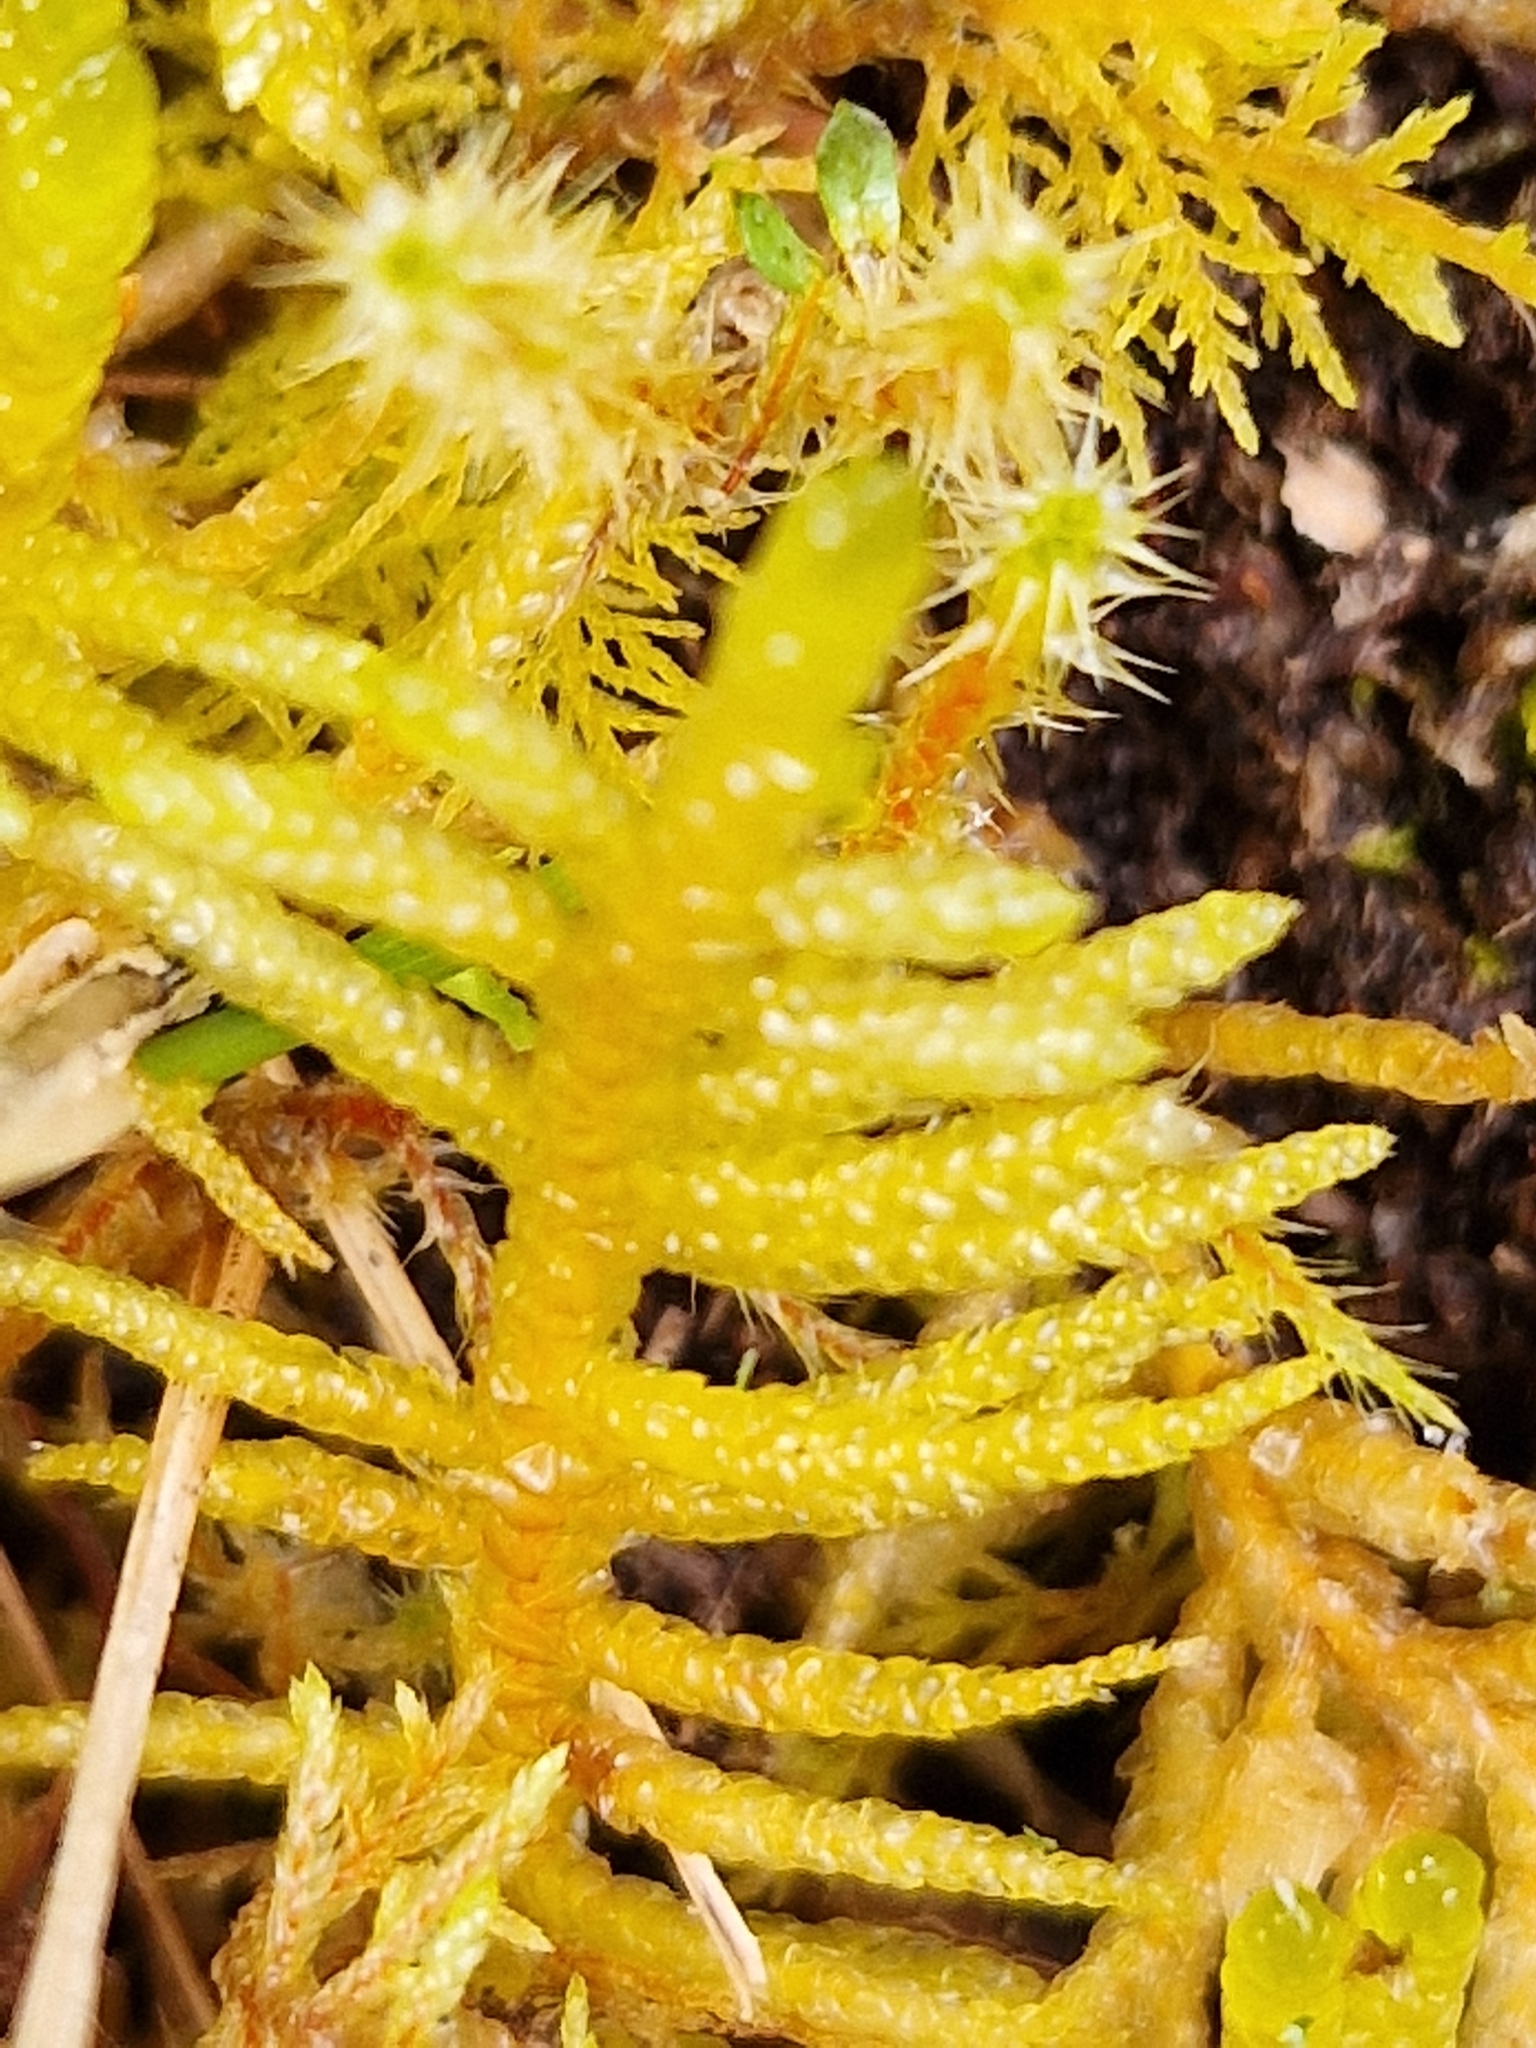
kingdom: Plantae
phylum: Bryophyta
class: Bryopsida
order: Hypnales
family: Brachytheciaceae
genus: Pseudoscleropodium
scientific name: Pseudoscleropodium purum
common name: Neat feather-moss
